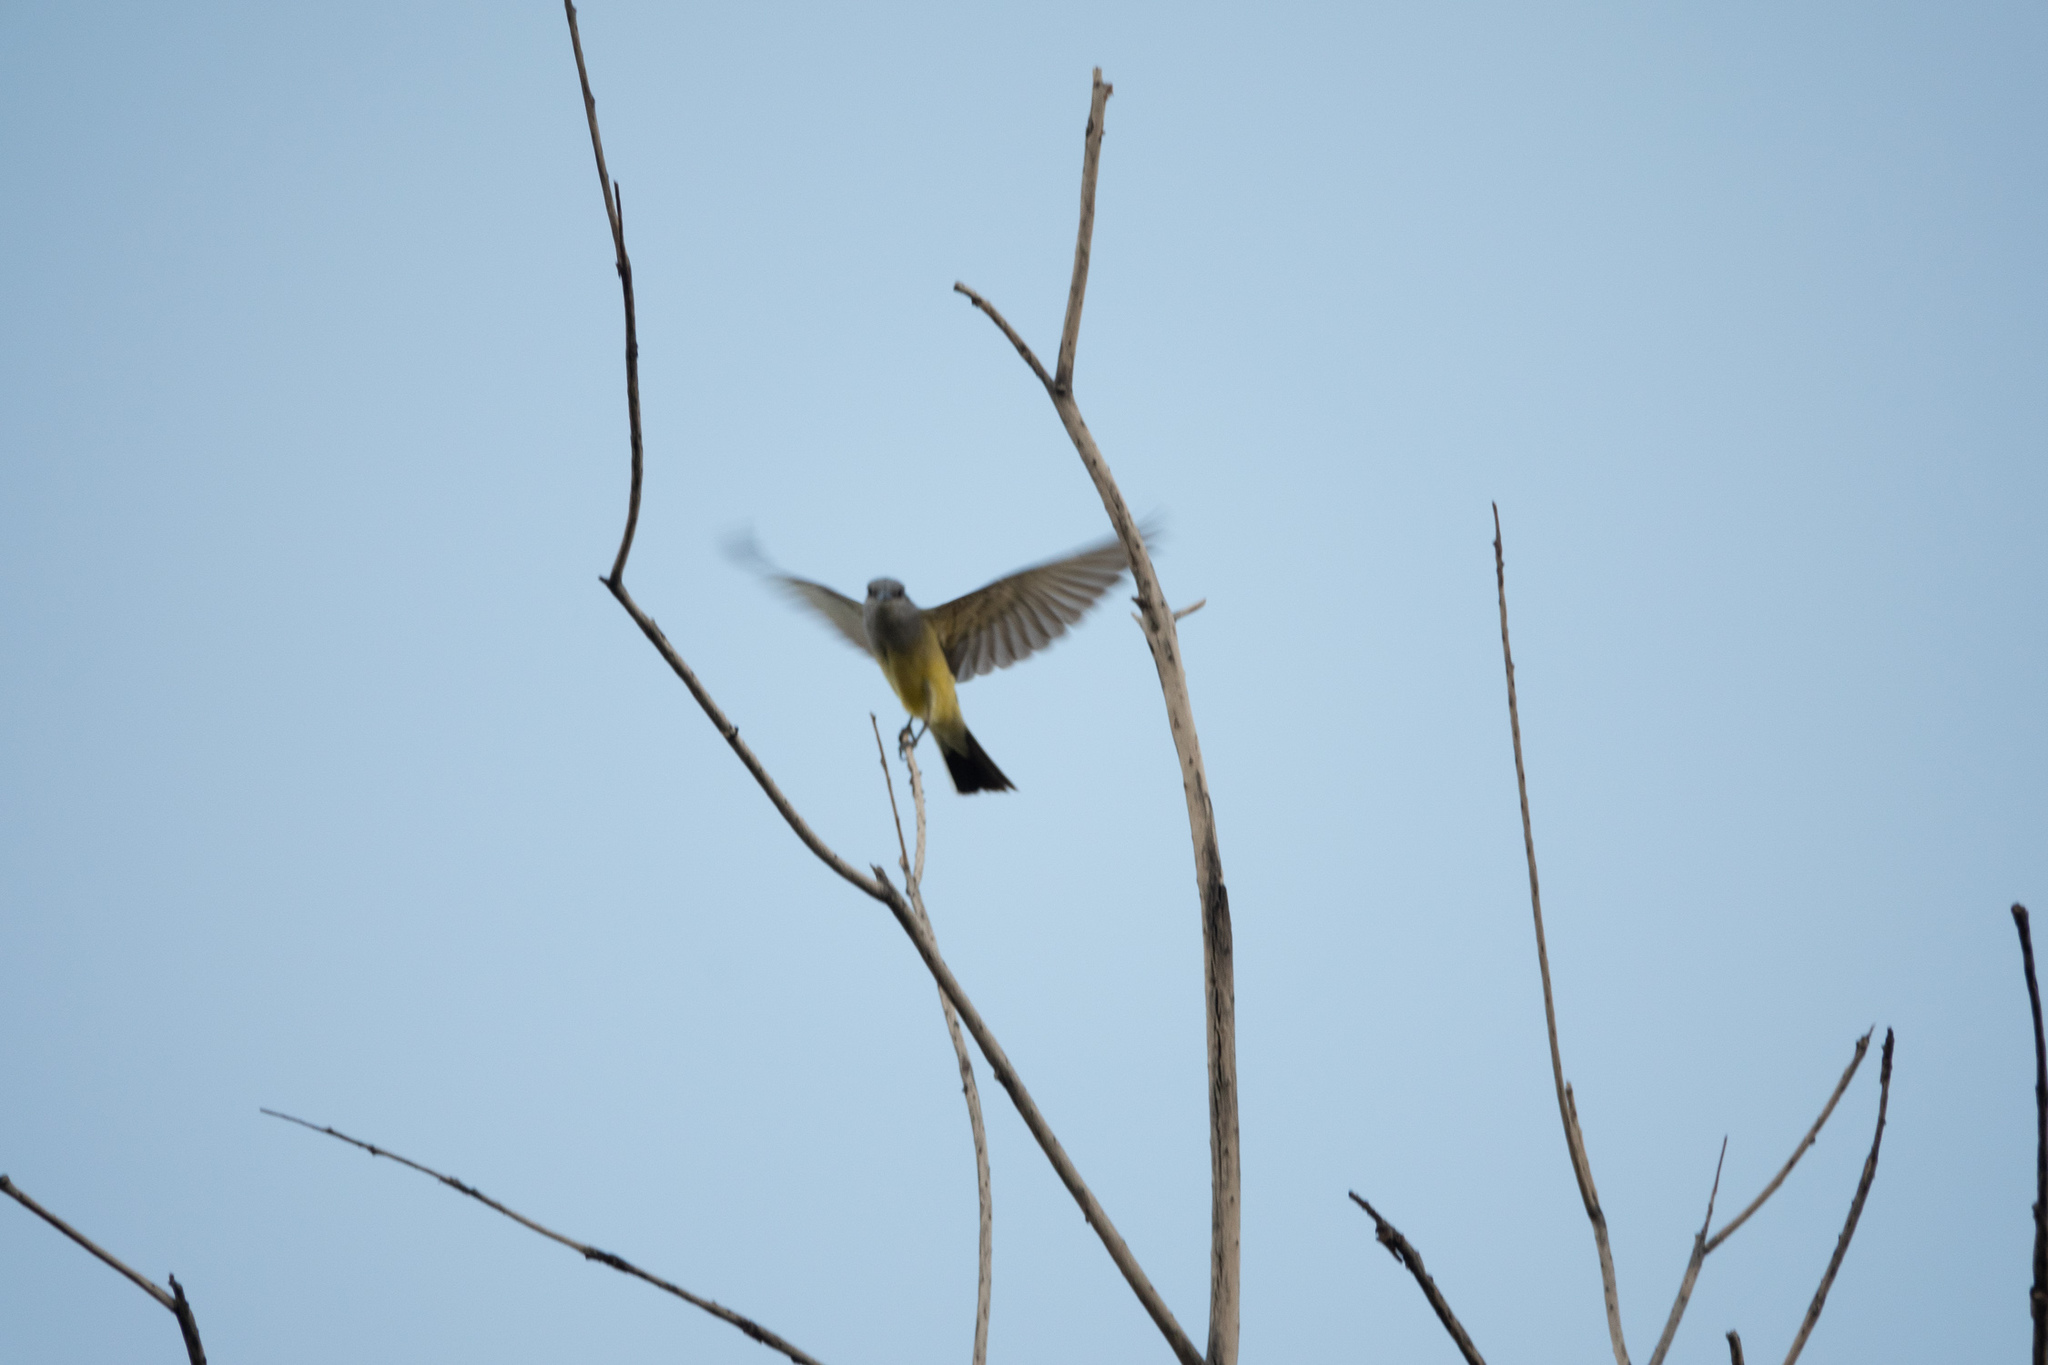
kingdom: Animalia
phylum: Chordata
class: Aves
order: Passeriformes
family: Tyrannidae
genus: Tyrannus
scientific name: Tyrannus verticalis
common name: Western kingbird
